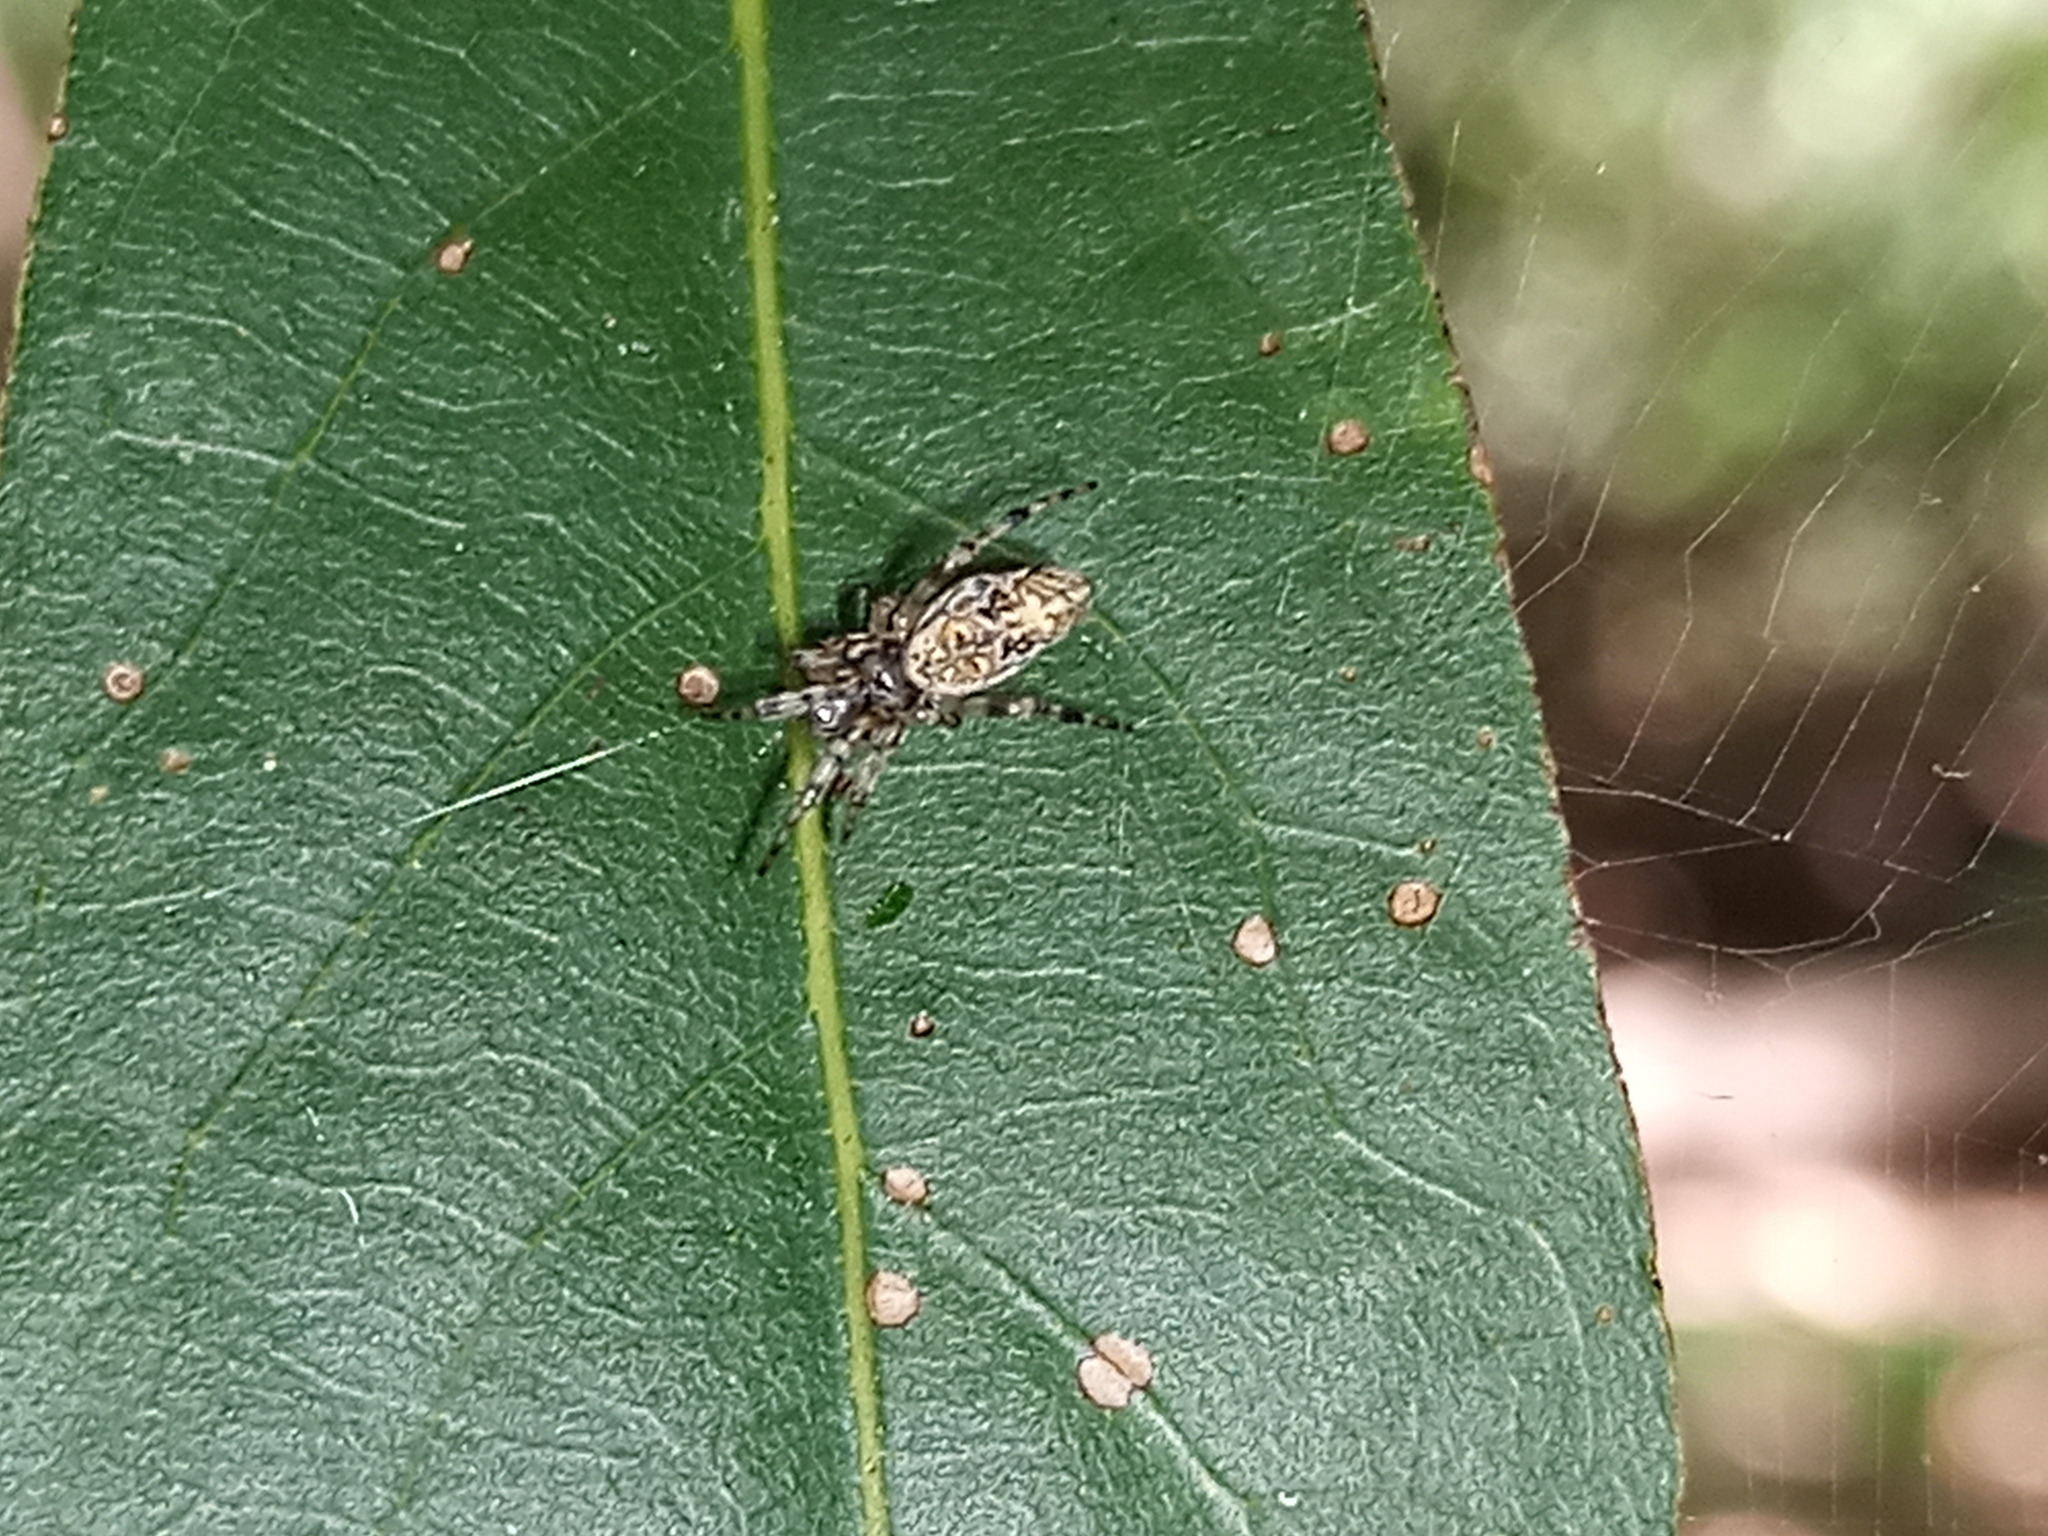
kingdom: Animalia
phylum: Arthropoda
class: Arachnida
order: Araneae
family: Araneidae
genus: Cyclosa
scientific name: Cyclosa machadinho
